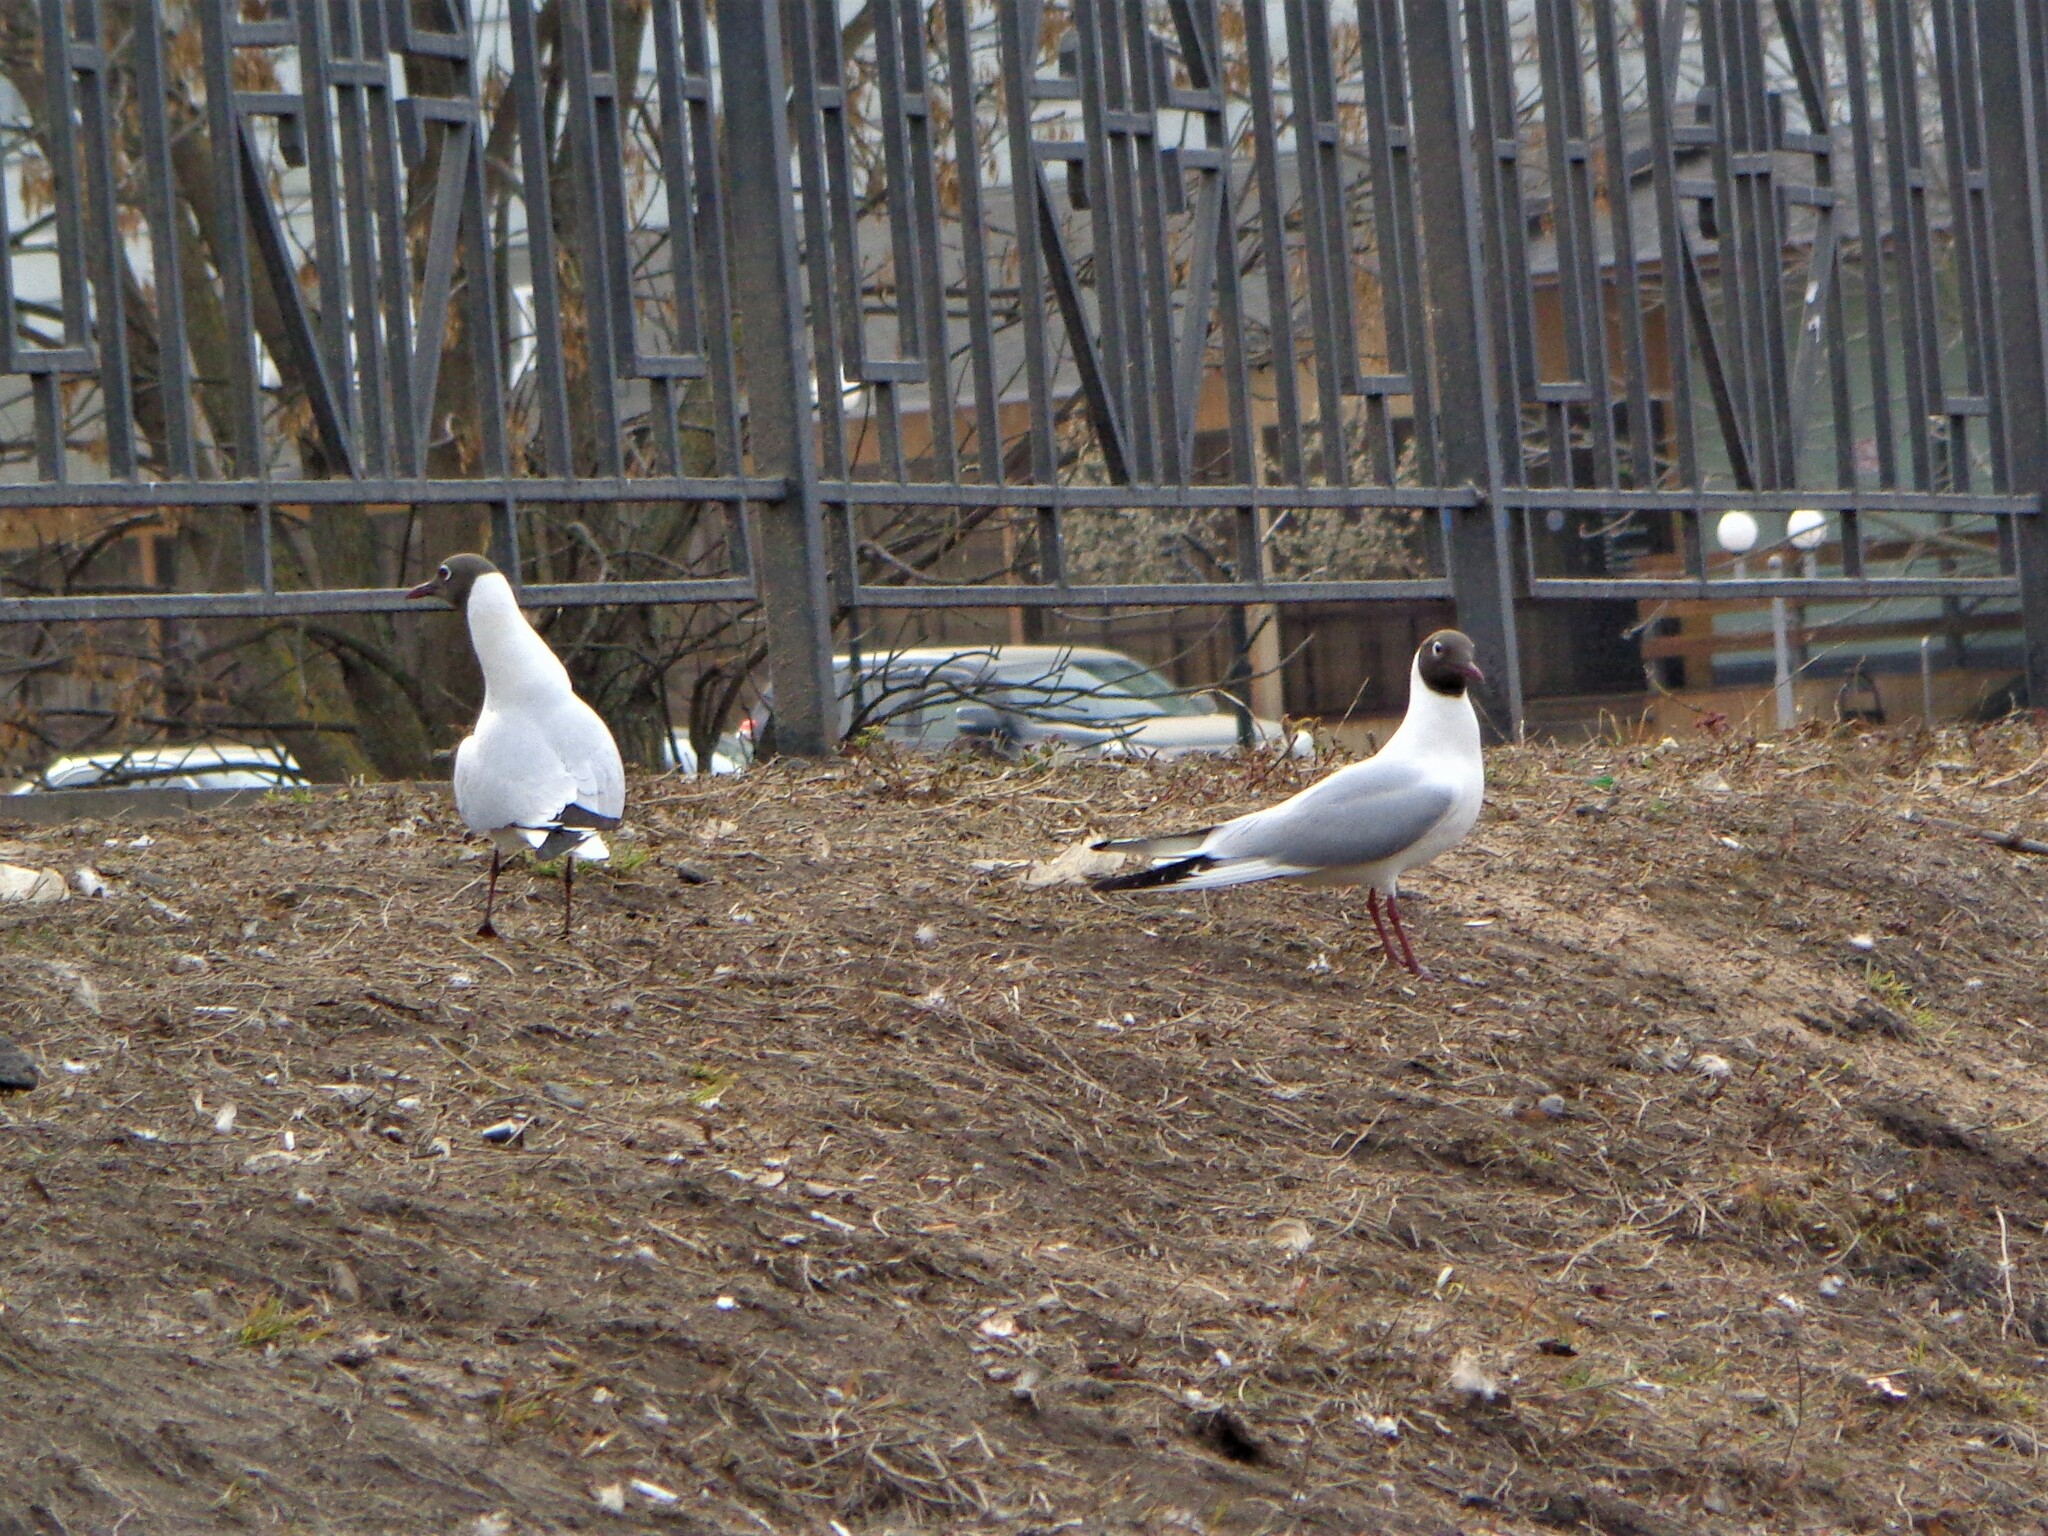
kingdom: Animalia
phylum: Chordata
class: Aves
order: Charadriiformes
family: Laridae
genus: Chroicocephalus
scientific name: Chroicocephalus ridibundus
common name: Black-headed gull
